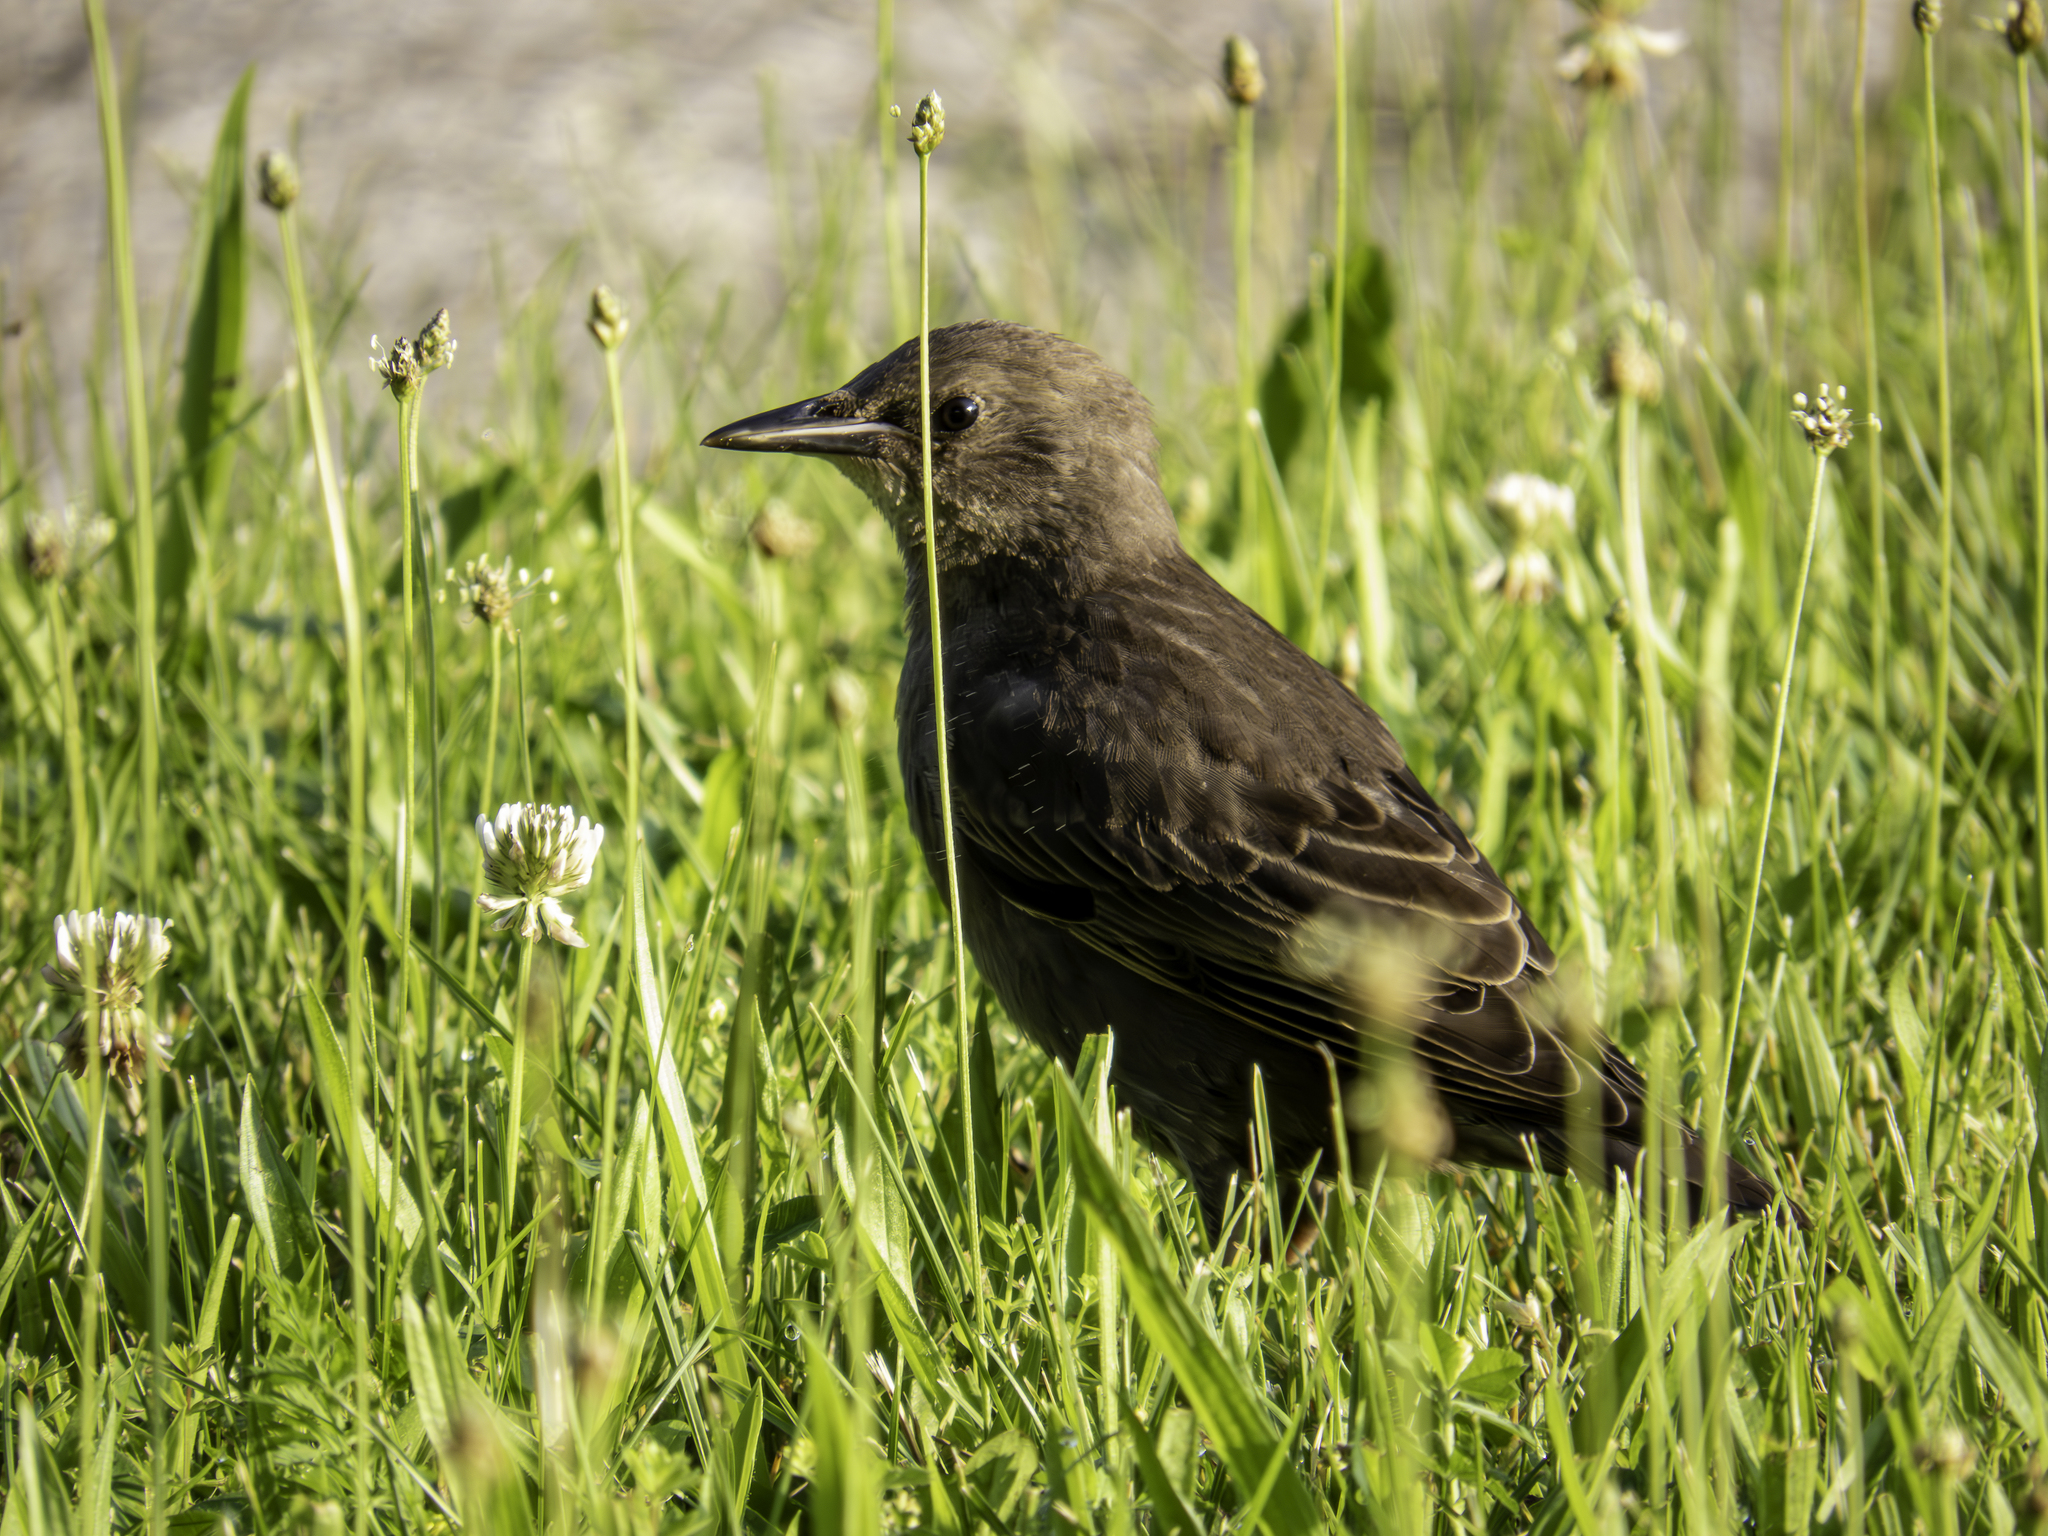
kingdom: Animalia
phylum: Chordata
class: Aves
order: Passeriformes
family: Icteridae
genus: Molothrus
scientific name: Molothrus ater
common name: Brown-headed cowbird
